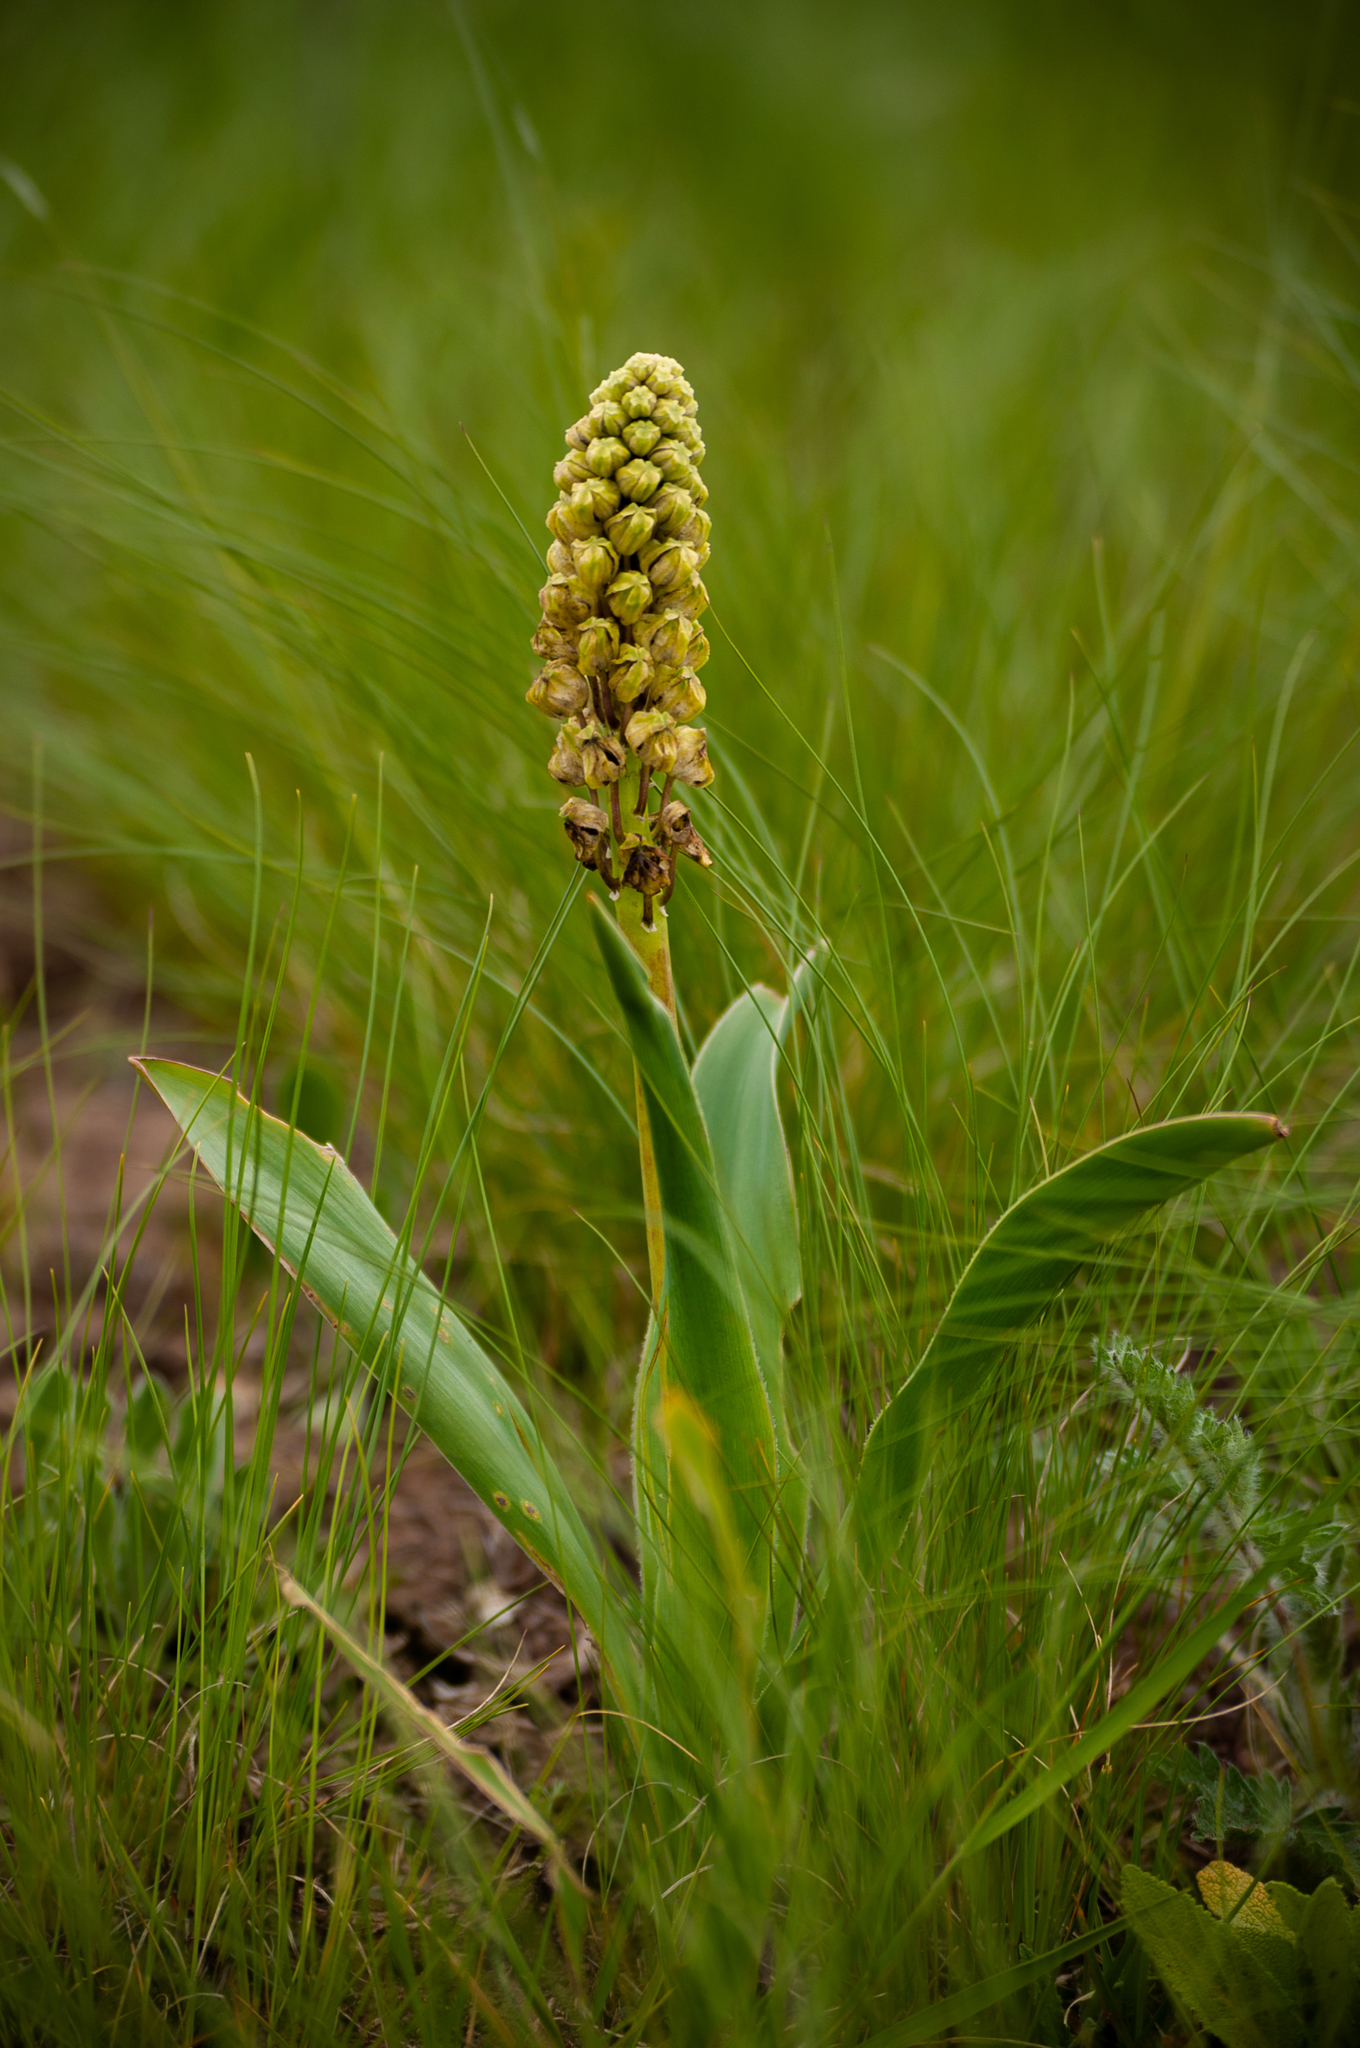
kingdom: Plantae
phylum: Tracheophyta
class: Liliopsida
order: Asparagales
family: Asparagaceae
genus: Bellevalia
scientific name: Bellevalia speciosa
